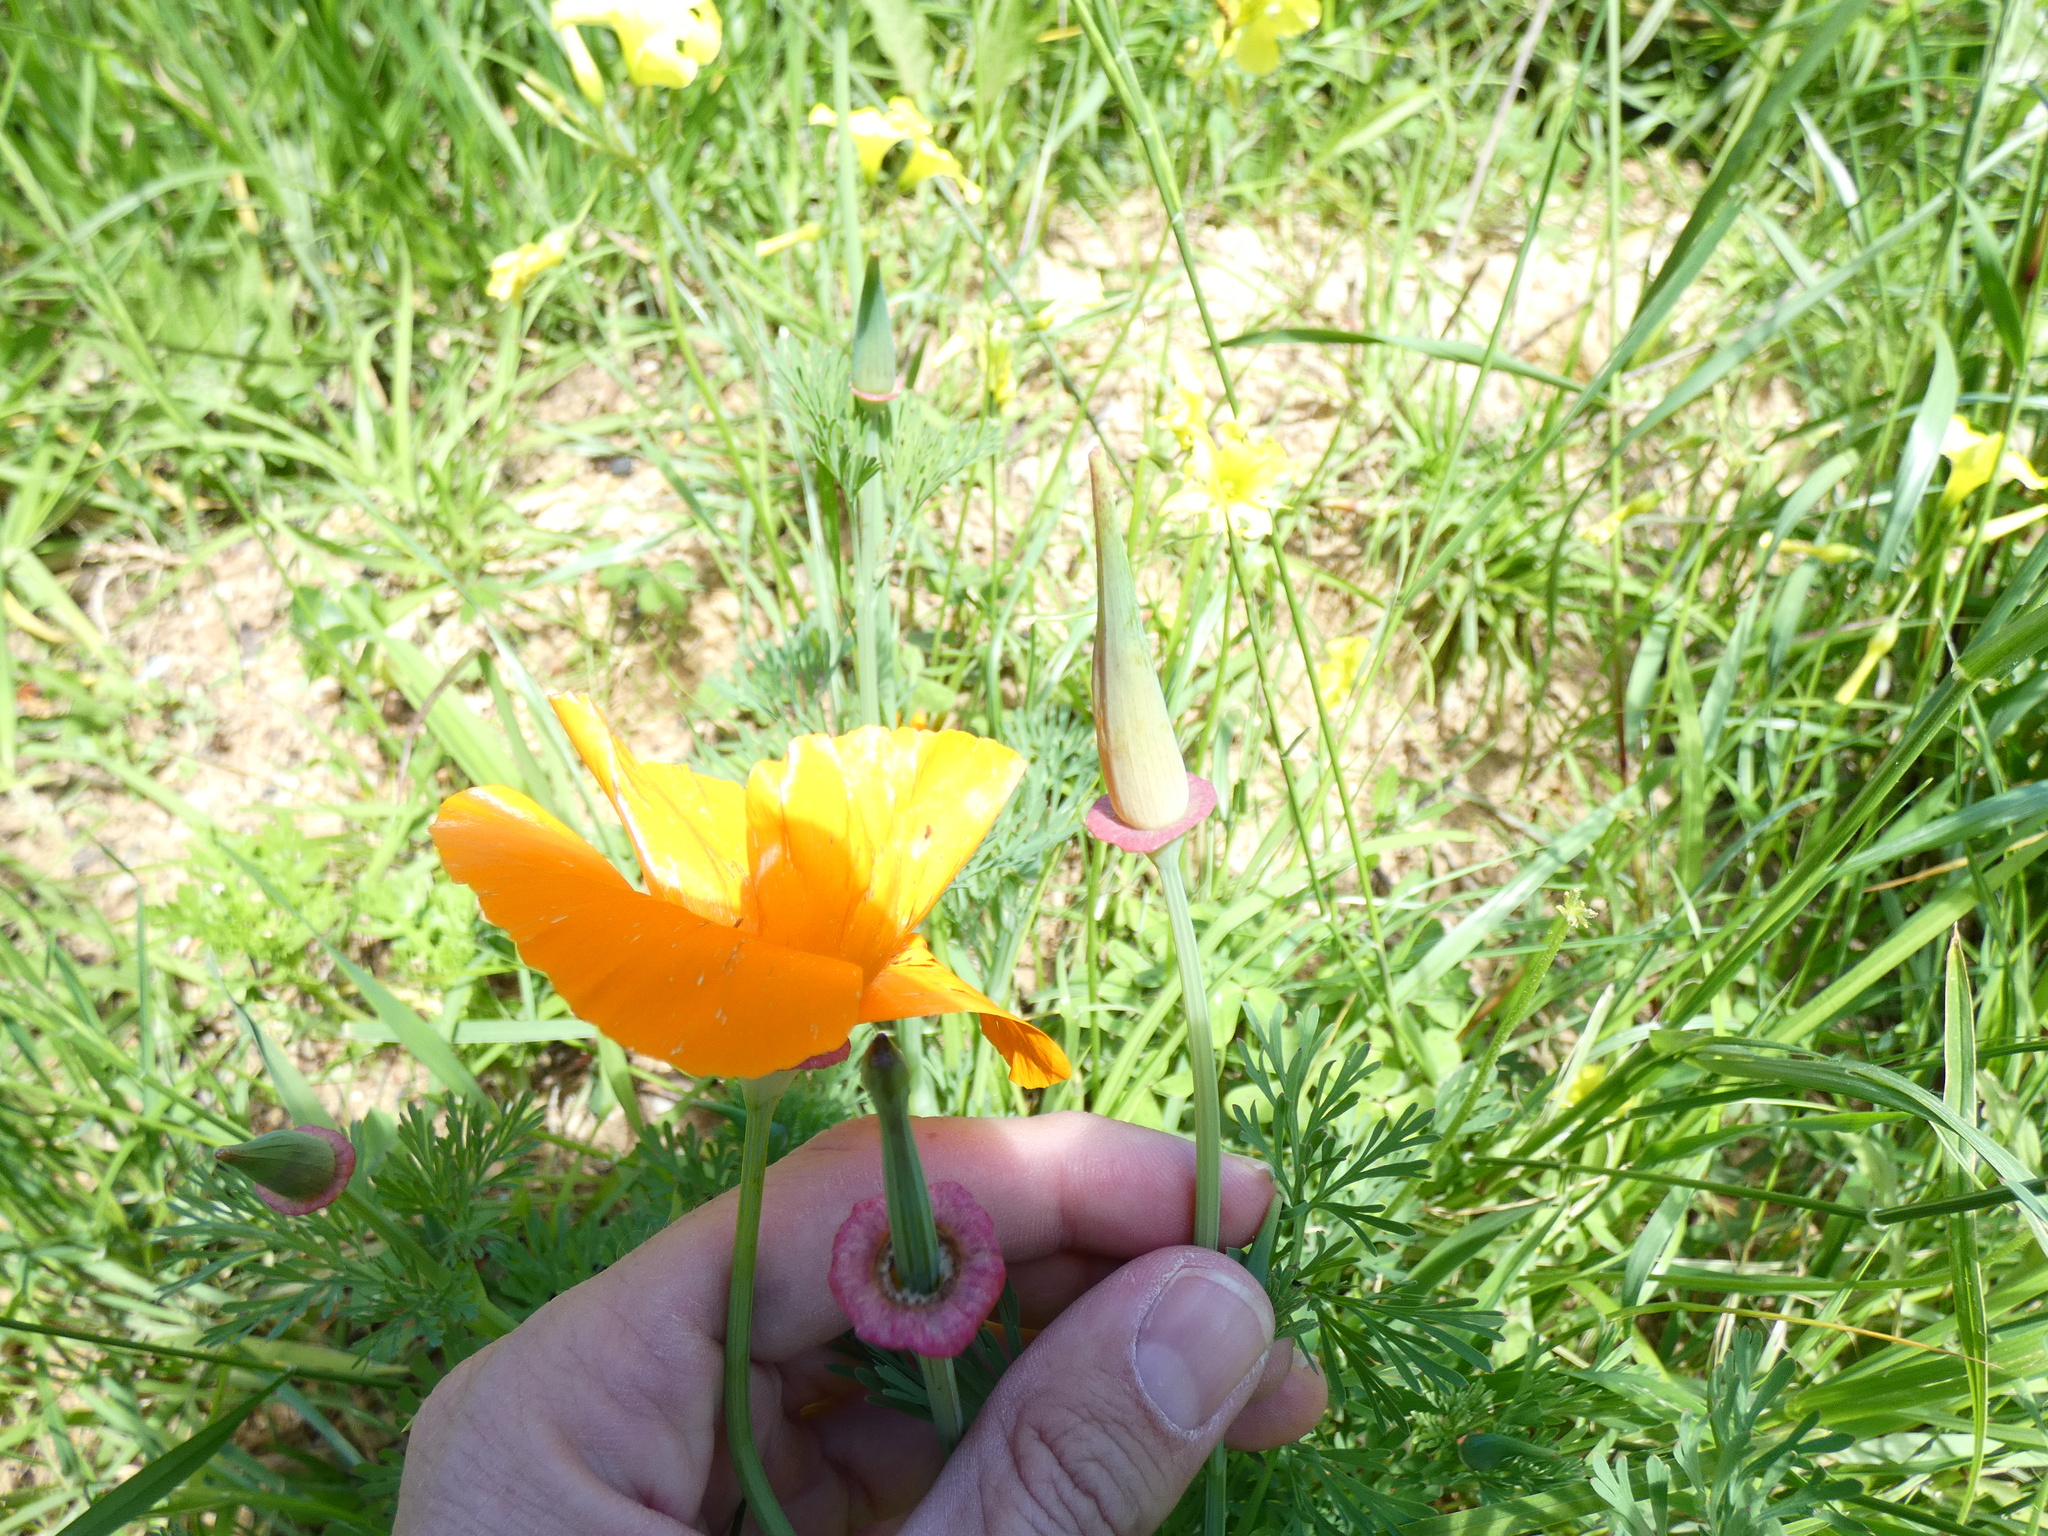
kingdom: Plantae
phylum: Tracheophyta
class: Magnoliopsida
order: Ranunculales
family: Papaveraceae
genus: Eschscholzia
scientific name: Eschscholzia californica
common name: California poppy
